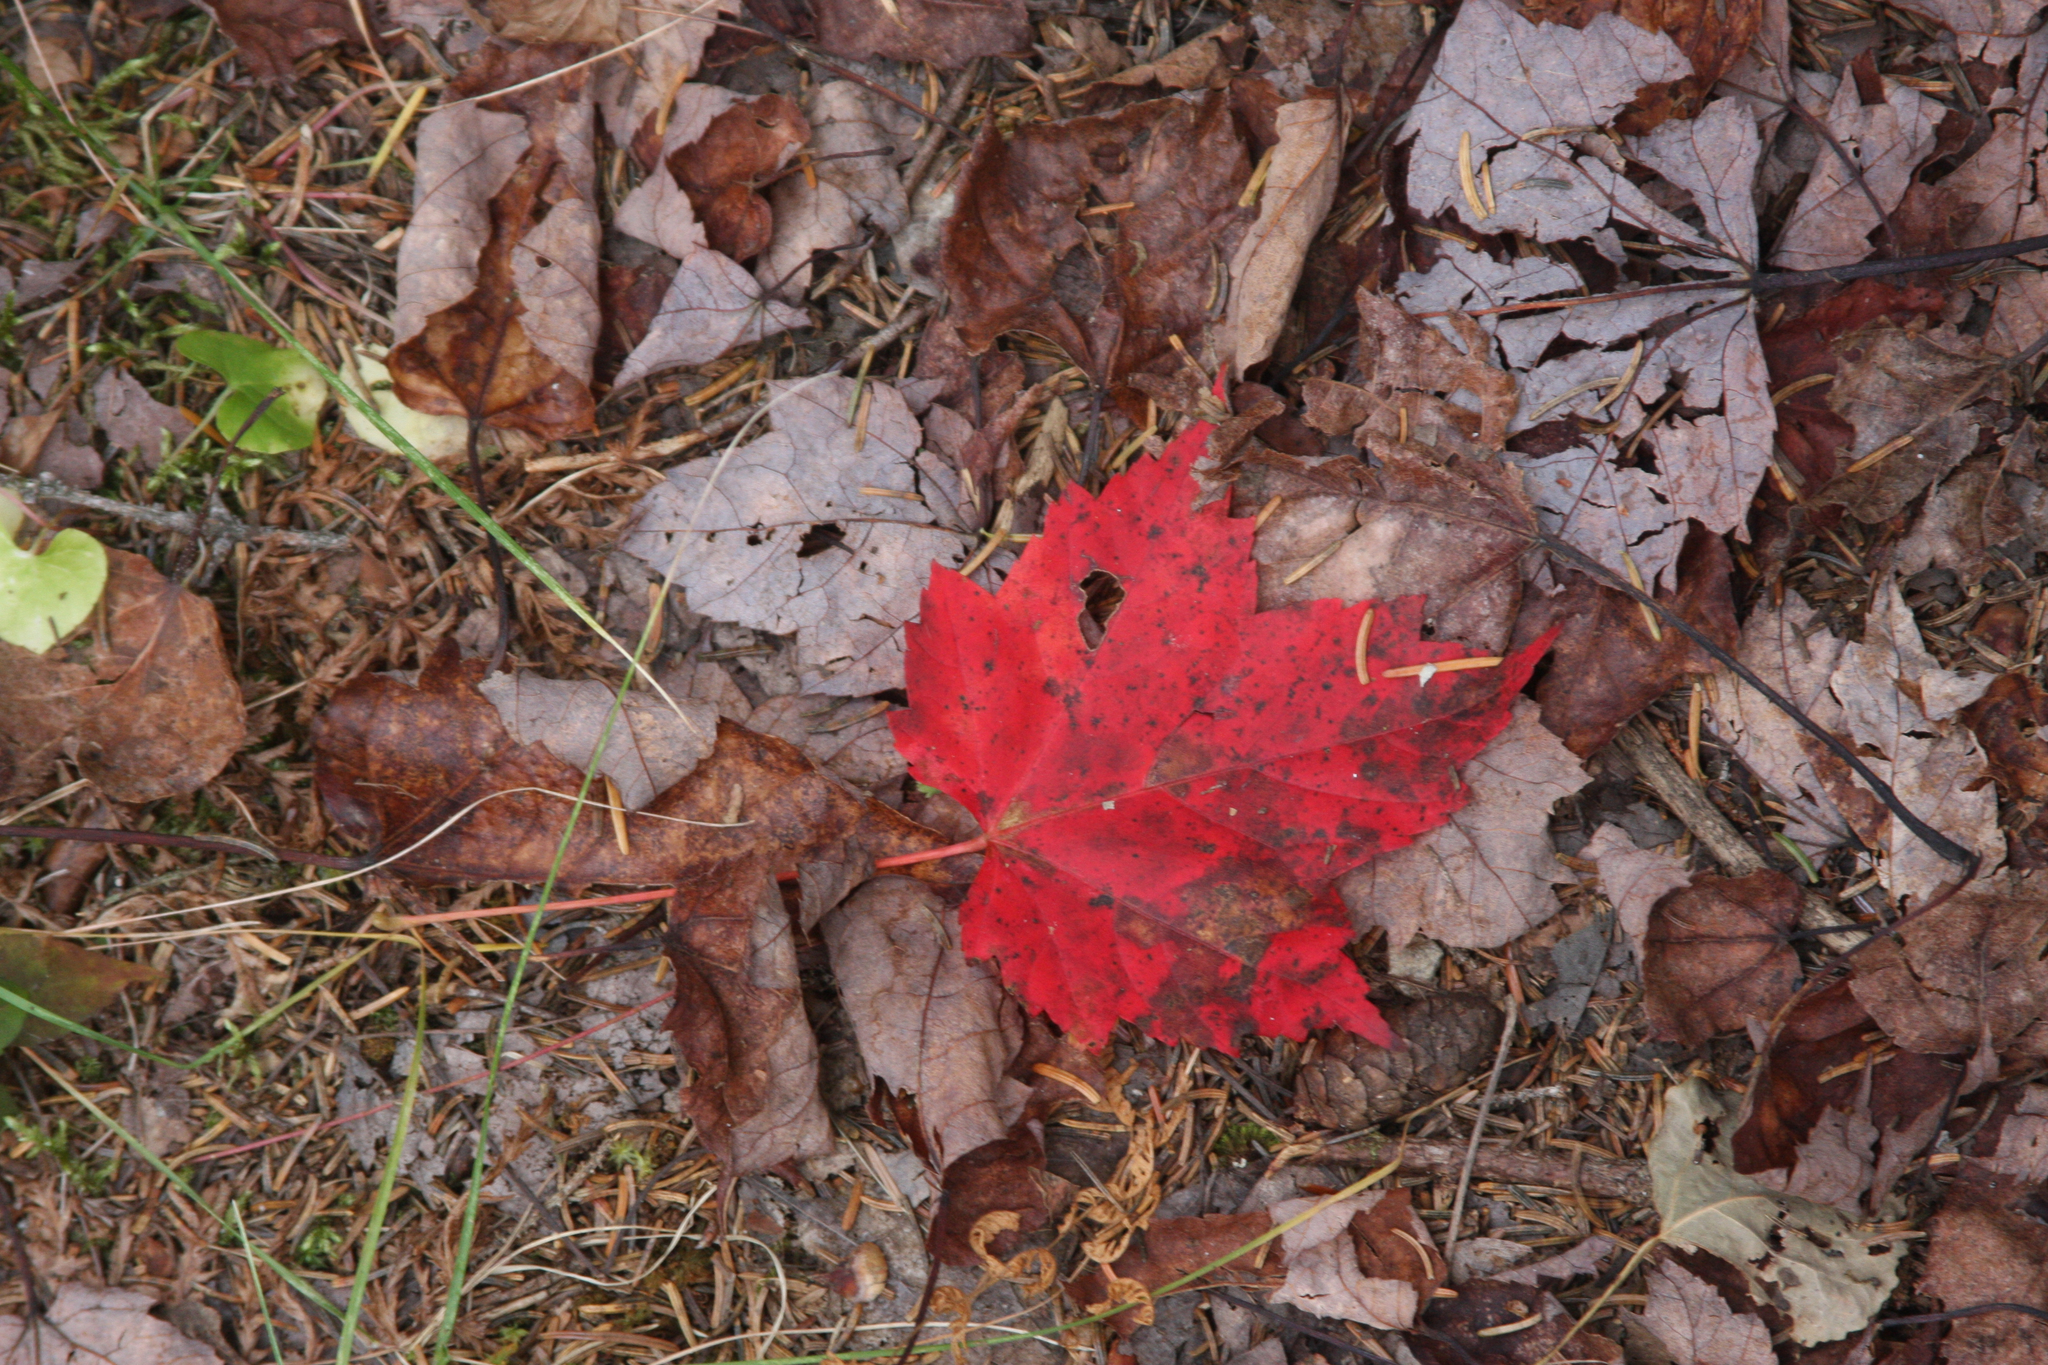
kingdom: Plantae
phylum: Tracheophyta
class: Magnoliopsida
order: Sapindales
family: Sapindaceae
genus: Acer
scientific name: Acer rubrum
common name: Red maple
